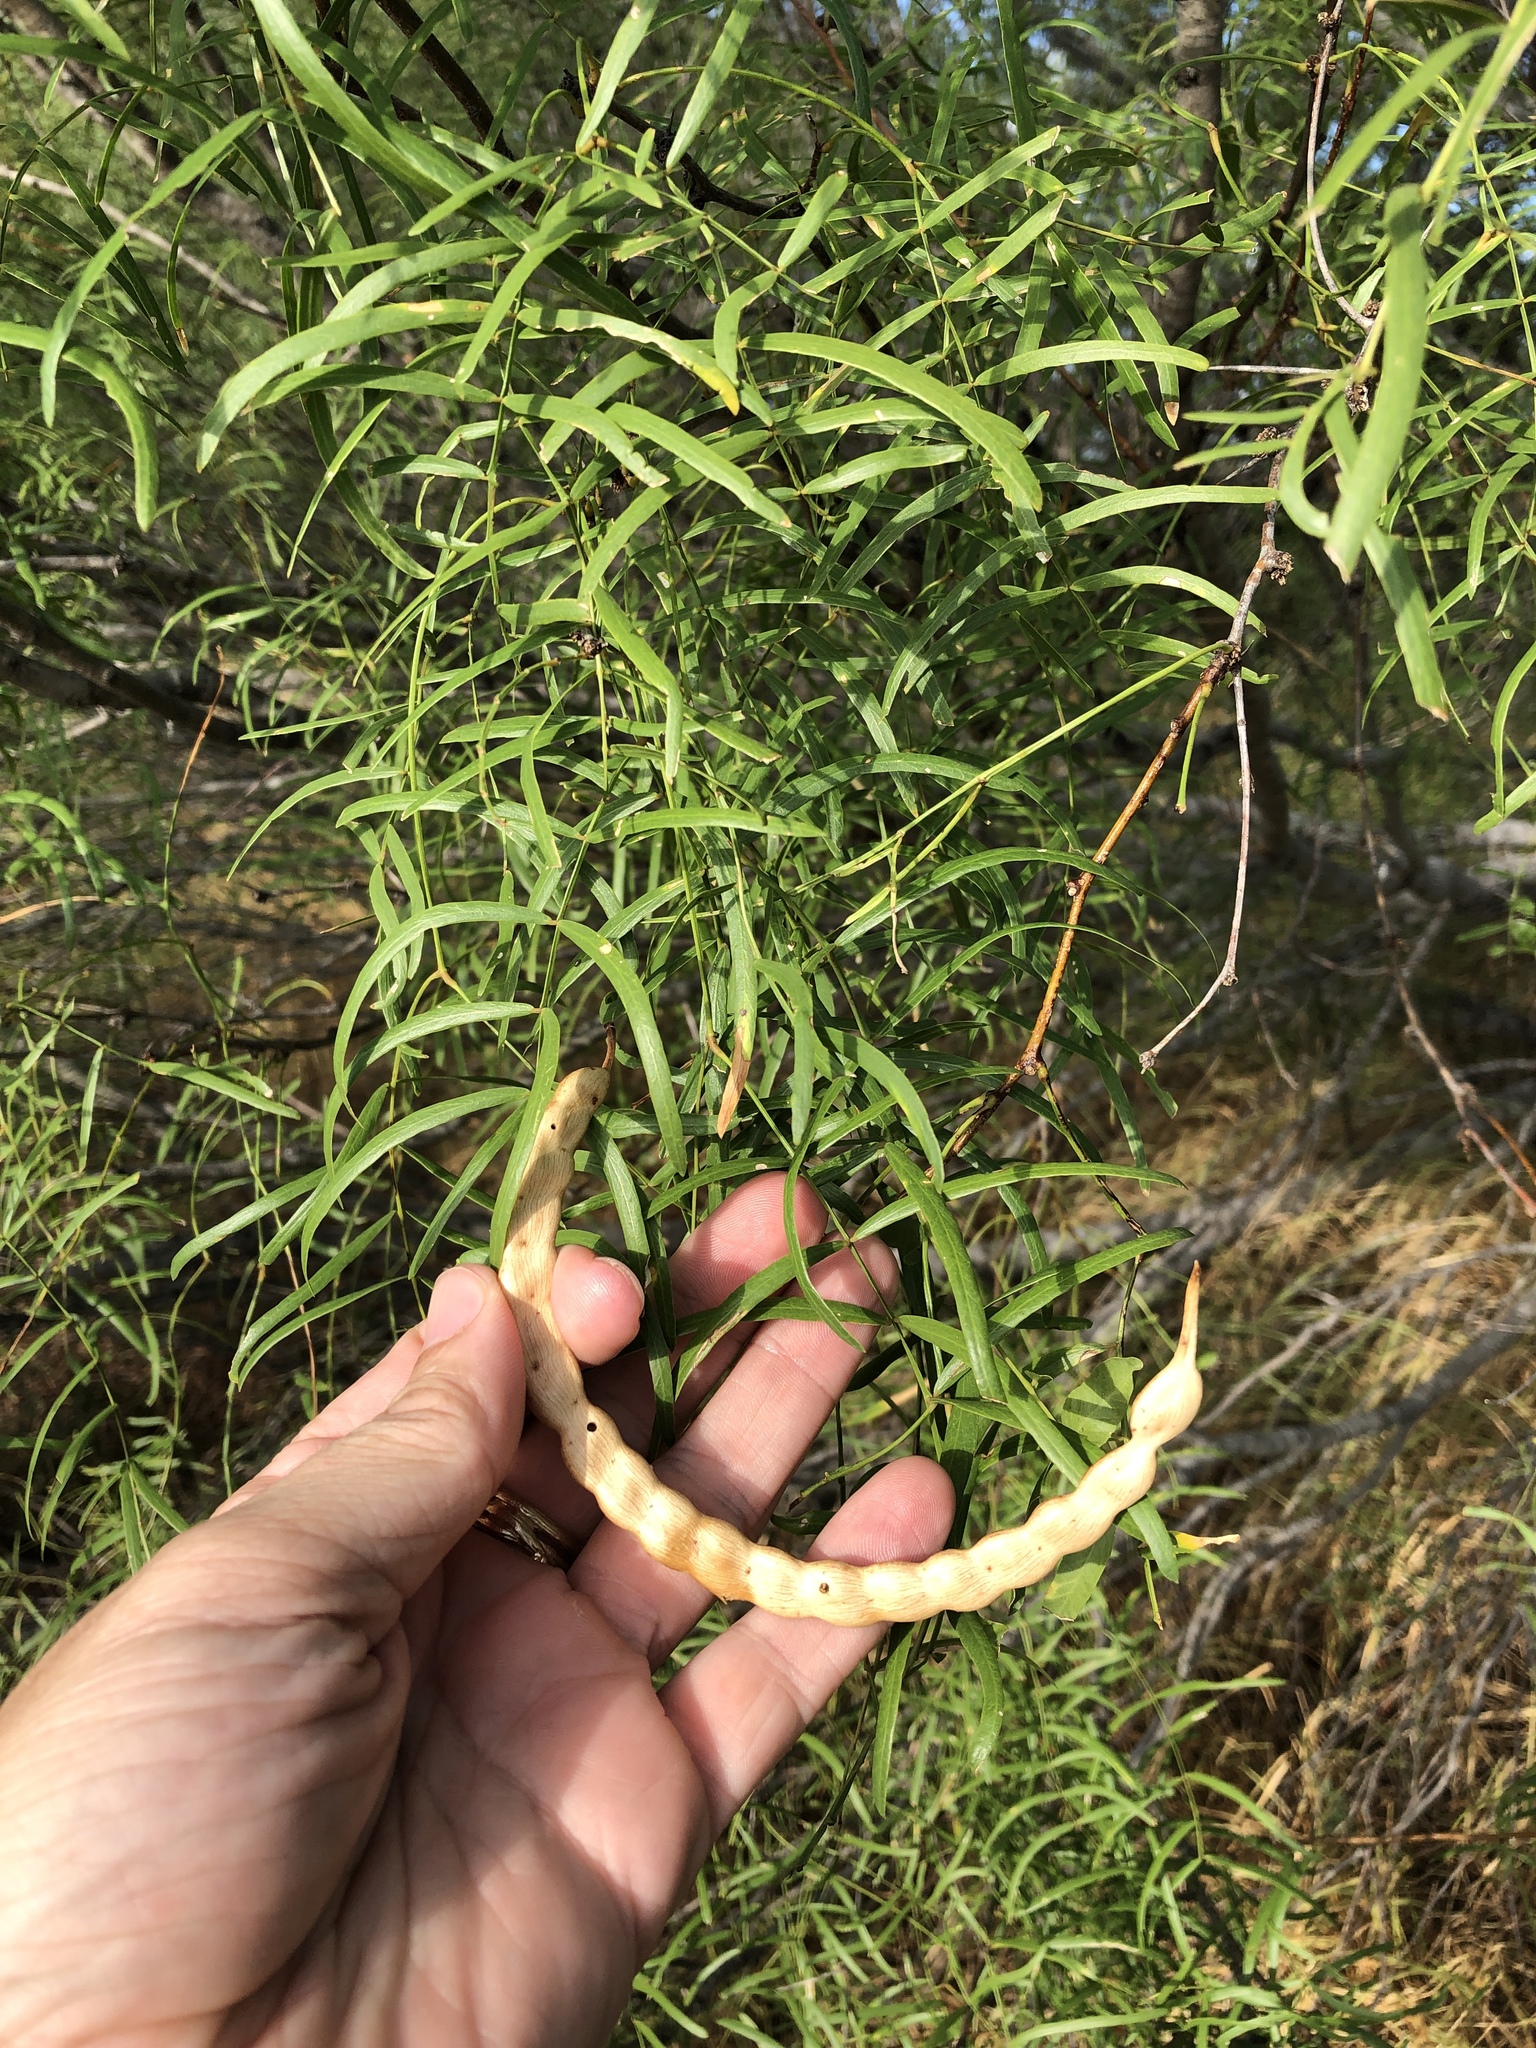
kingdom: Plantae
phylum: Tracheophyta
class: Magnoliopsida
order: Fabales
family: Fabaceae
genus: Prosopis
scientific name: Prosopis glandulosa
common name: Honey mesquite
